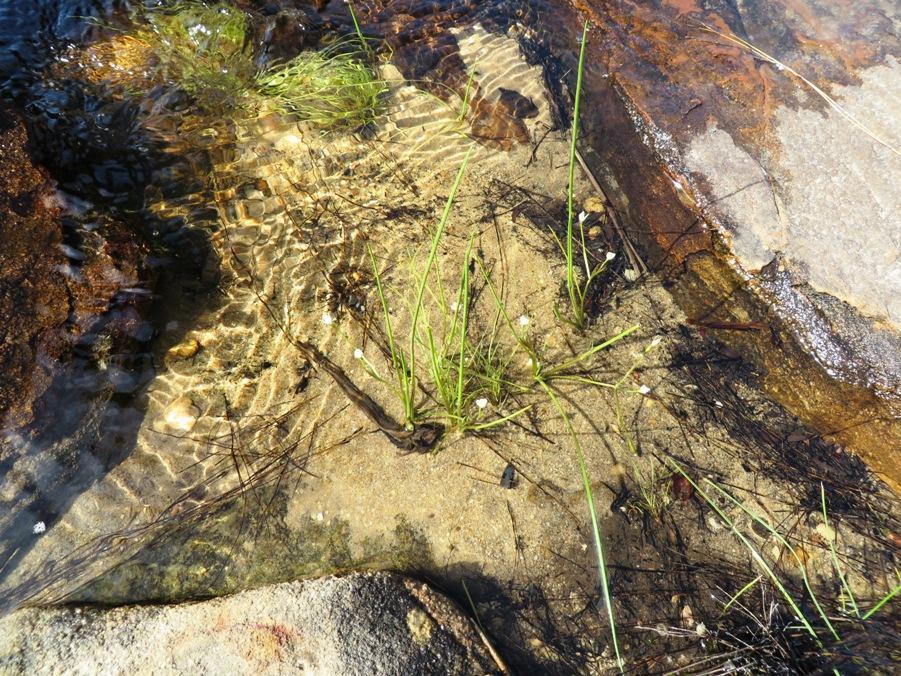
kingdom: Plantae
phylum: Tracheophyta
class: Liliopsida
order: Asparagales
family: Hypoxidaceae
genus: Pauridia
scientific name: Pauridia aquatica
